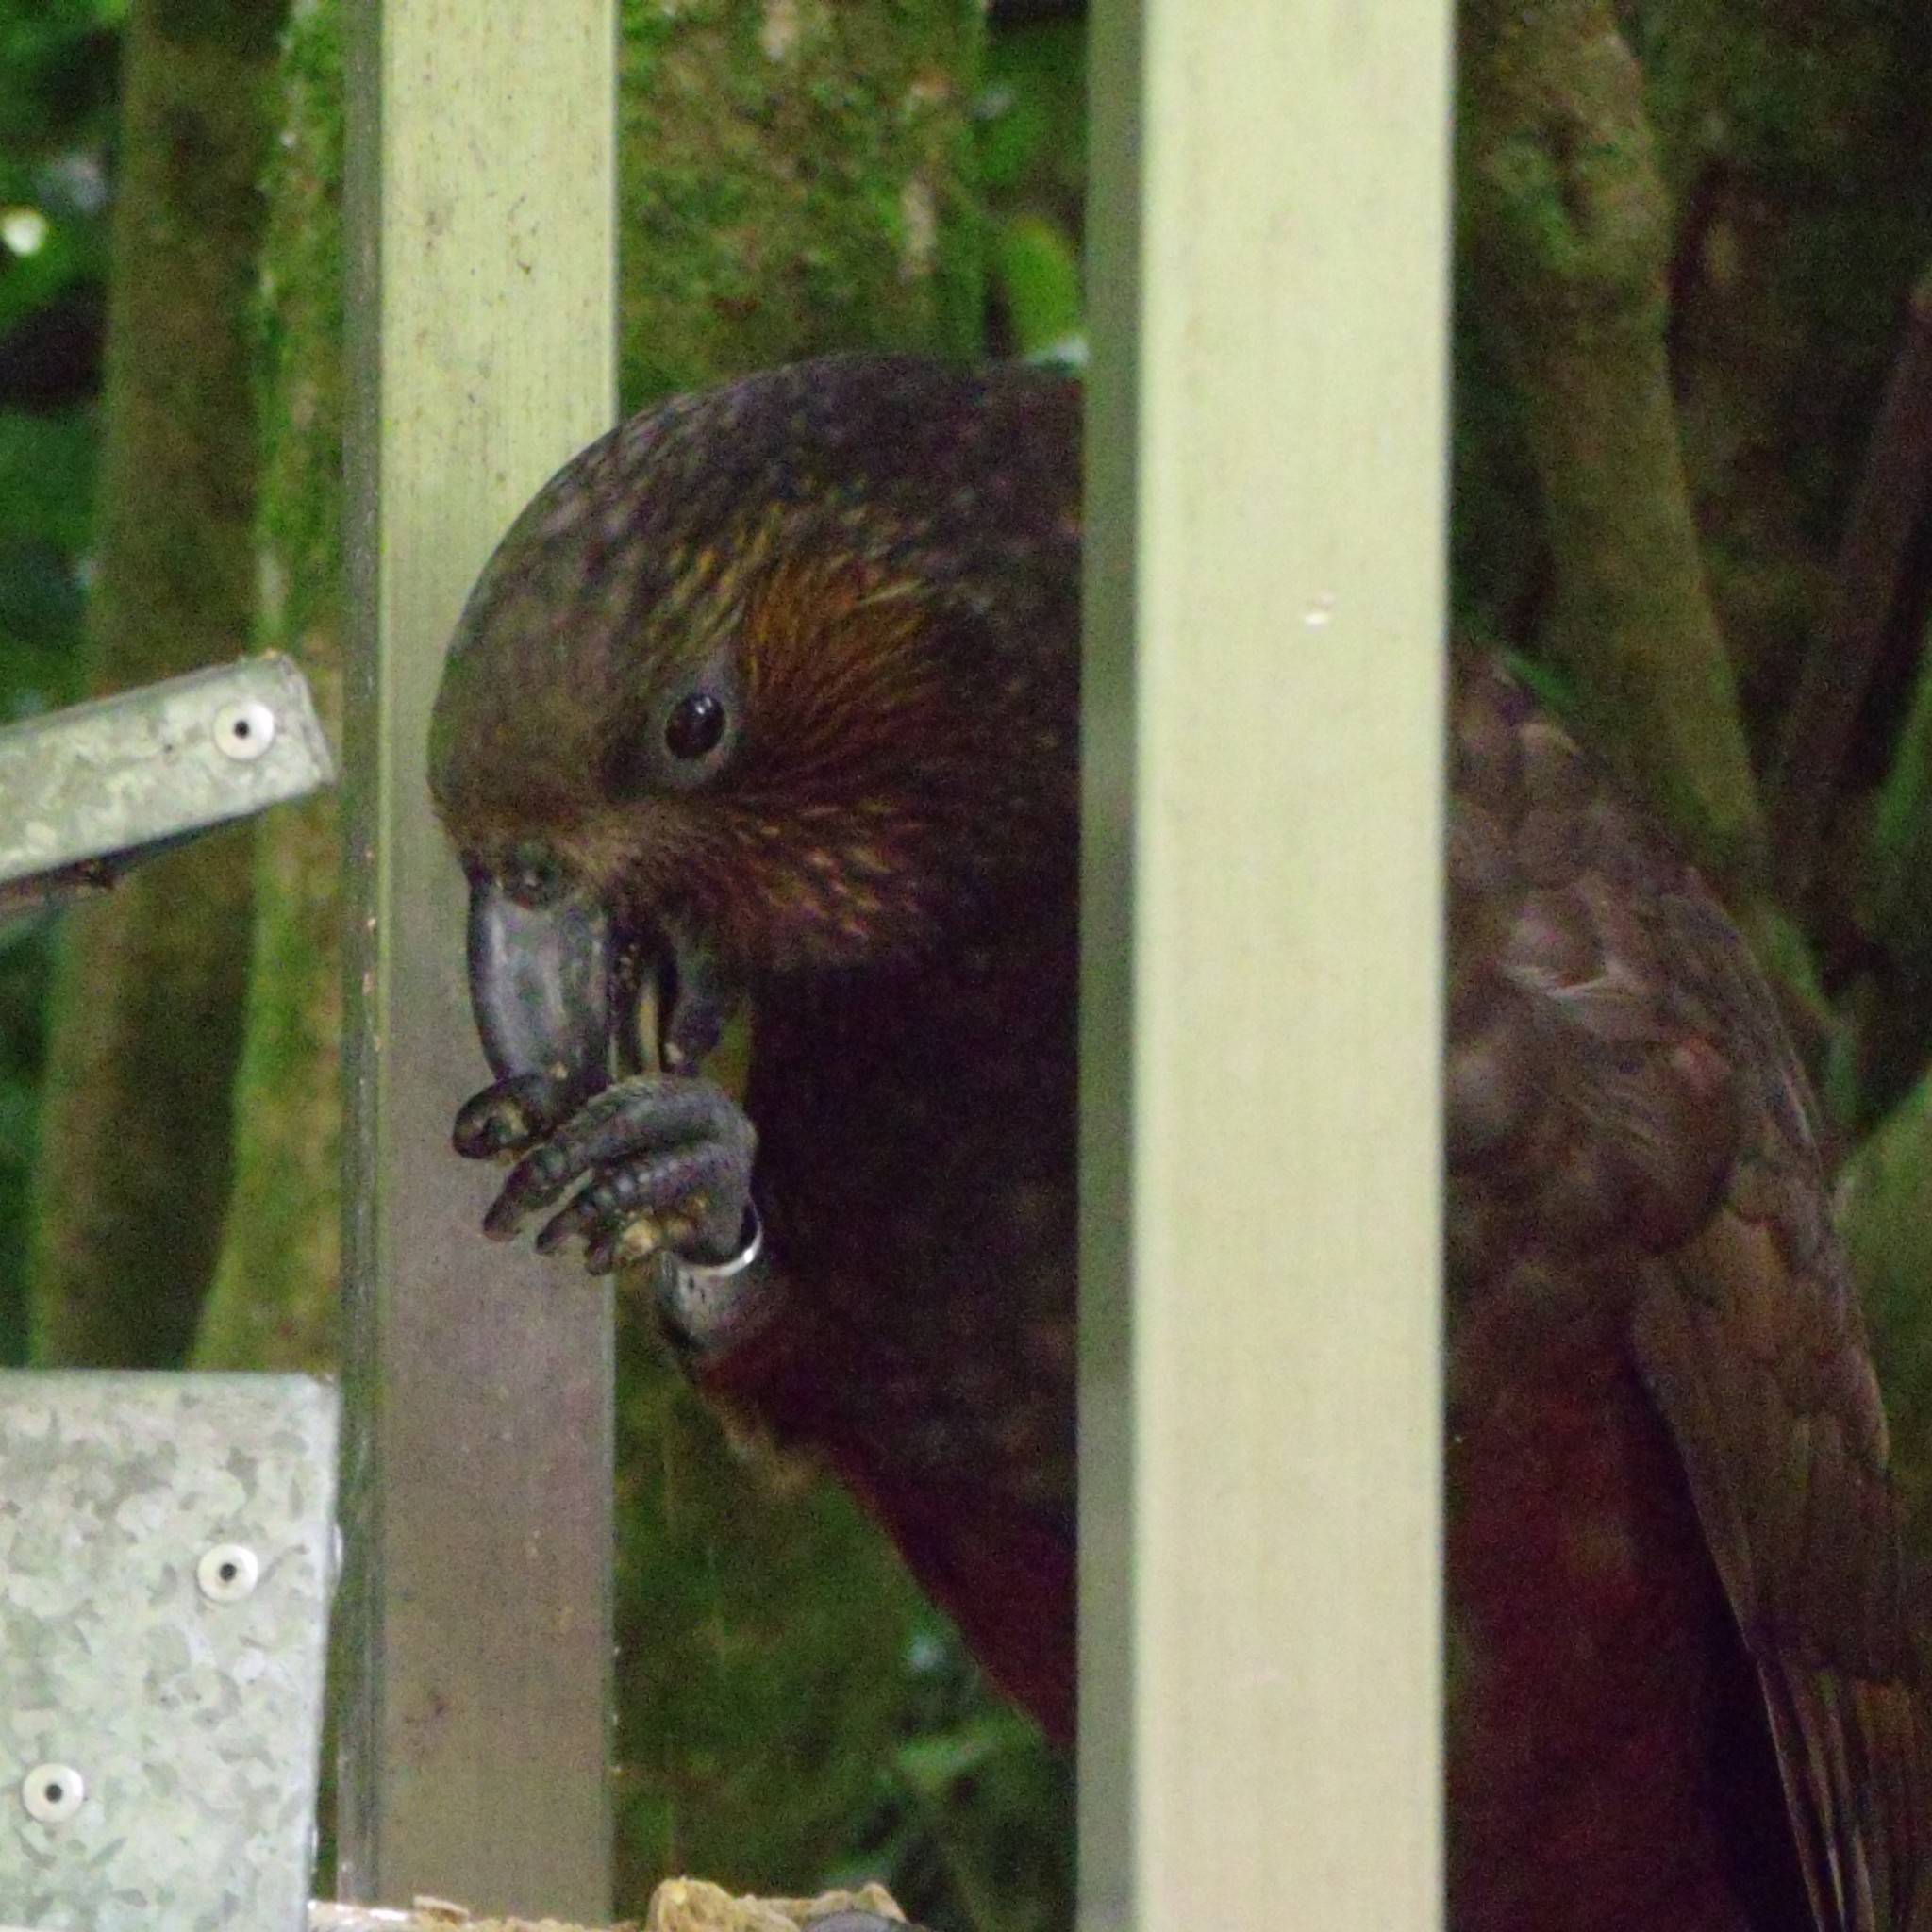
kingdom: Animalia
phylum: Chordata
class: Aves
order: Psittaciformes
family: Psittacidae
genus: Nestor
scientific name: Nestor meridionalis
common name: New zealand kaka
